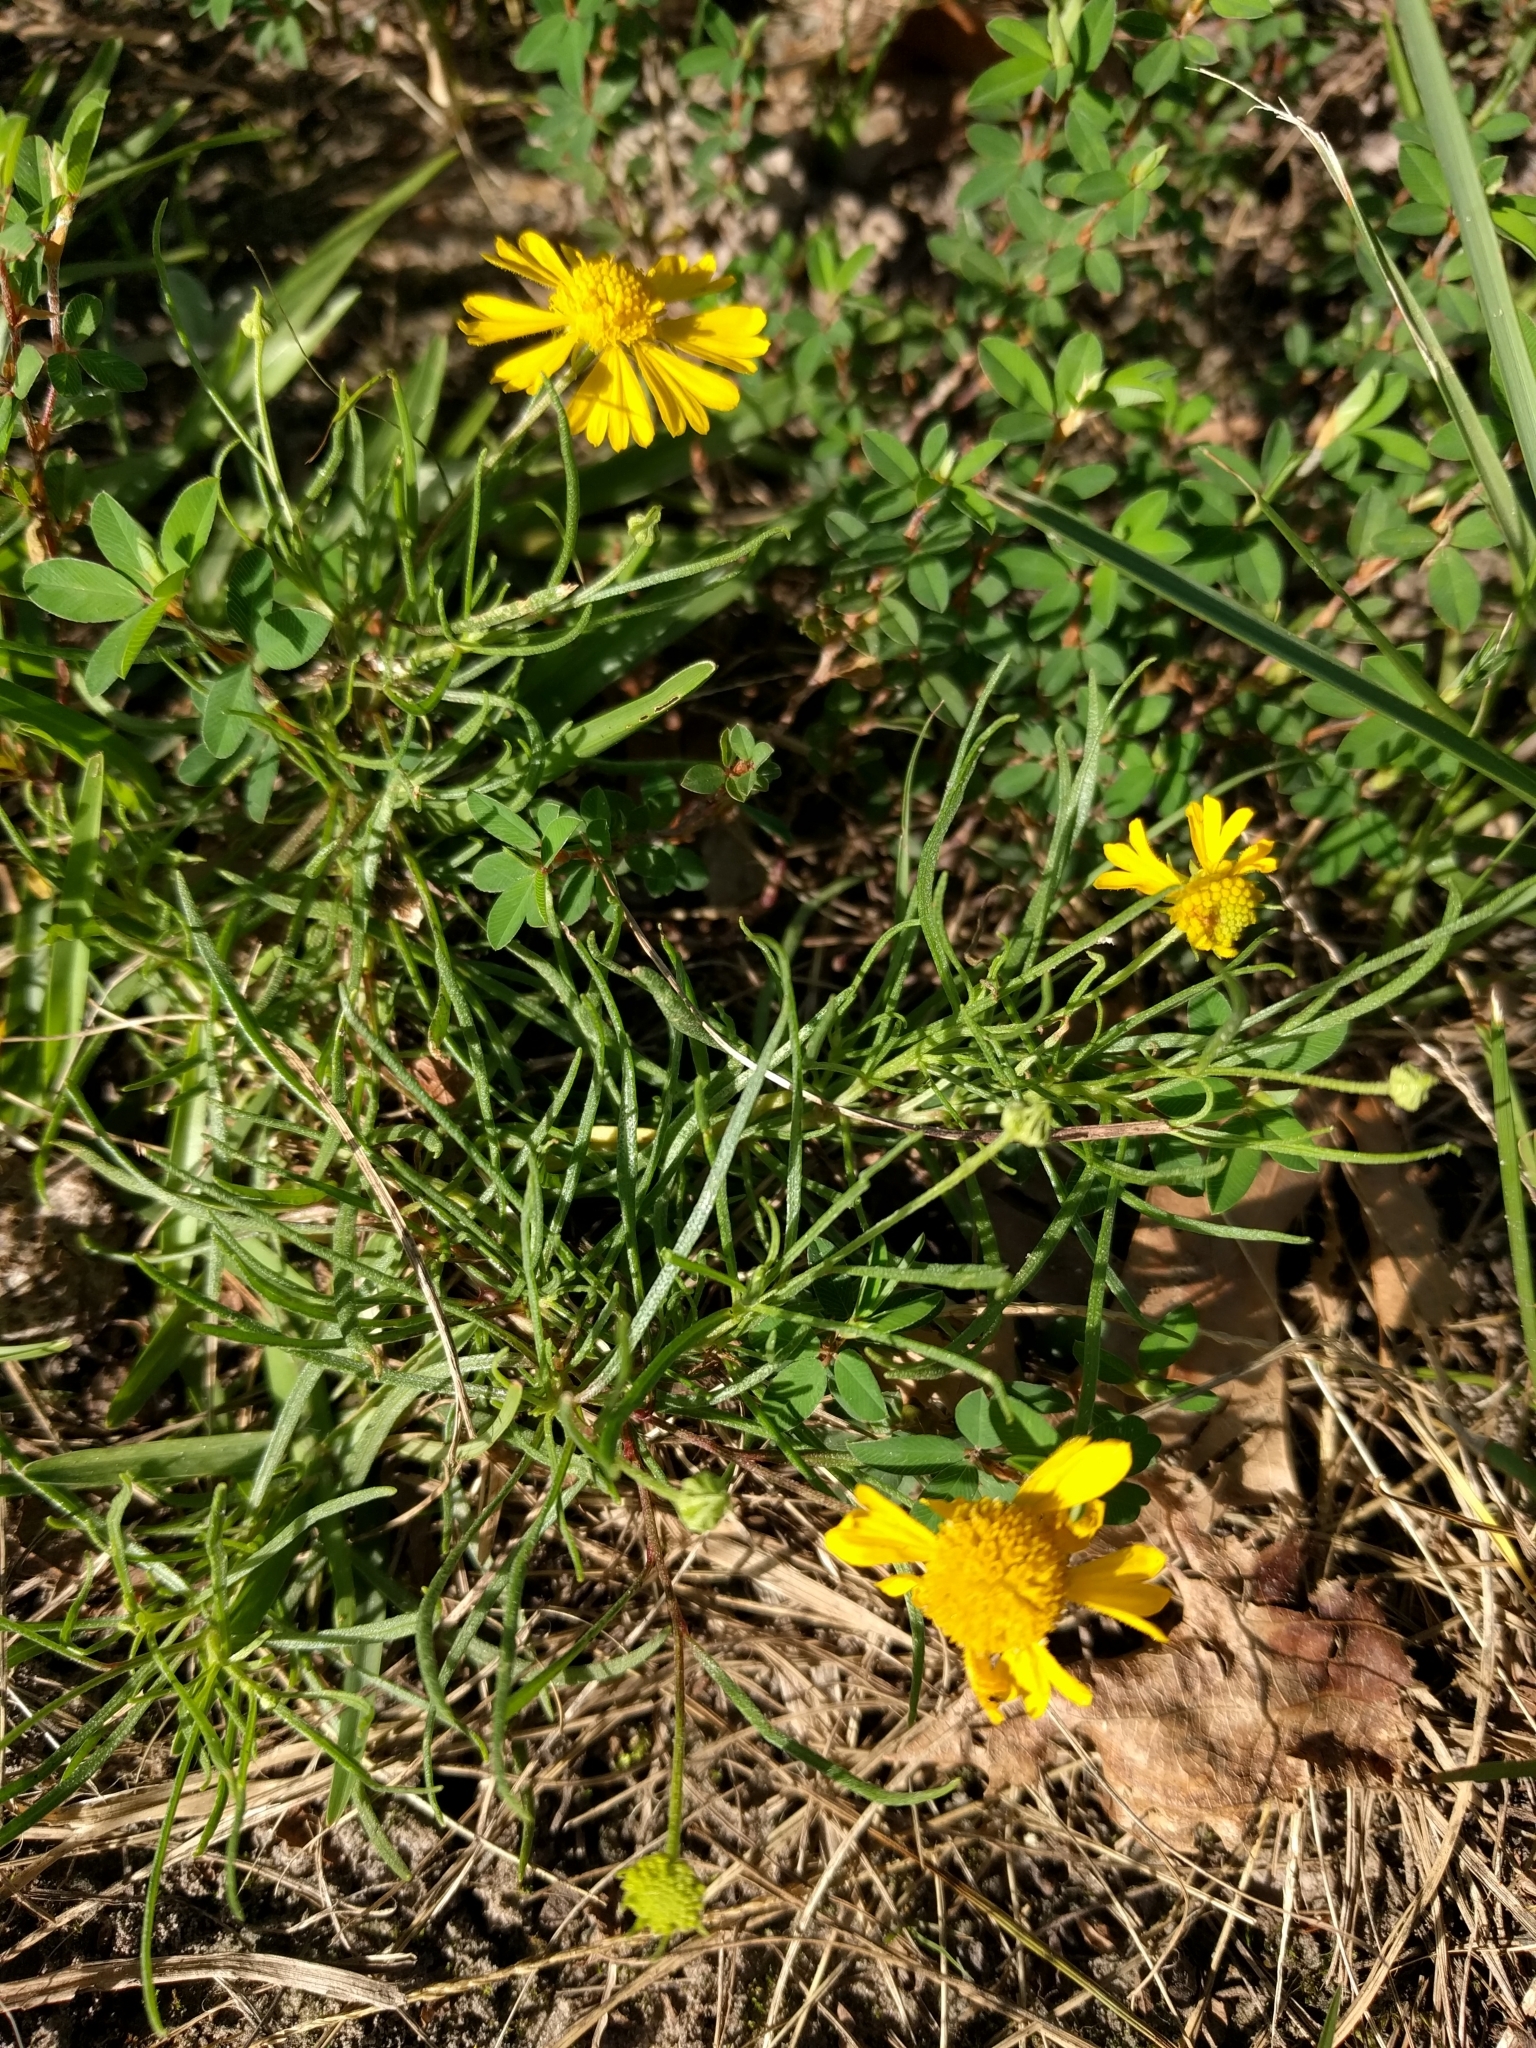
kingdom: Plantae
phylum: Tracheophyta
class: Magnoliopsida
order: Asterales
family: Asteraceae
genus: Helenium
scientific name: Helenium amarum
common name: Bitter sneezeweed
